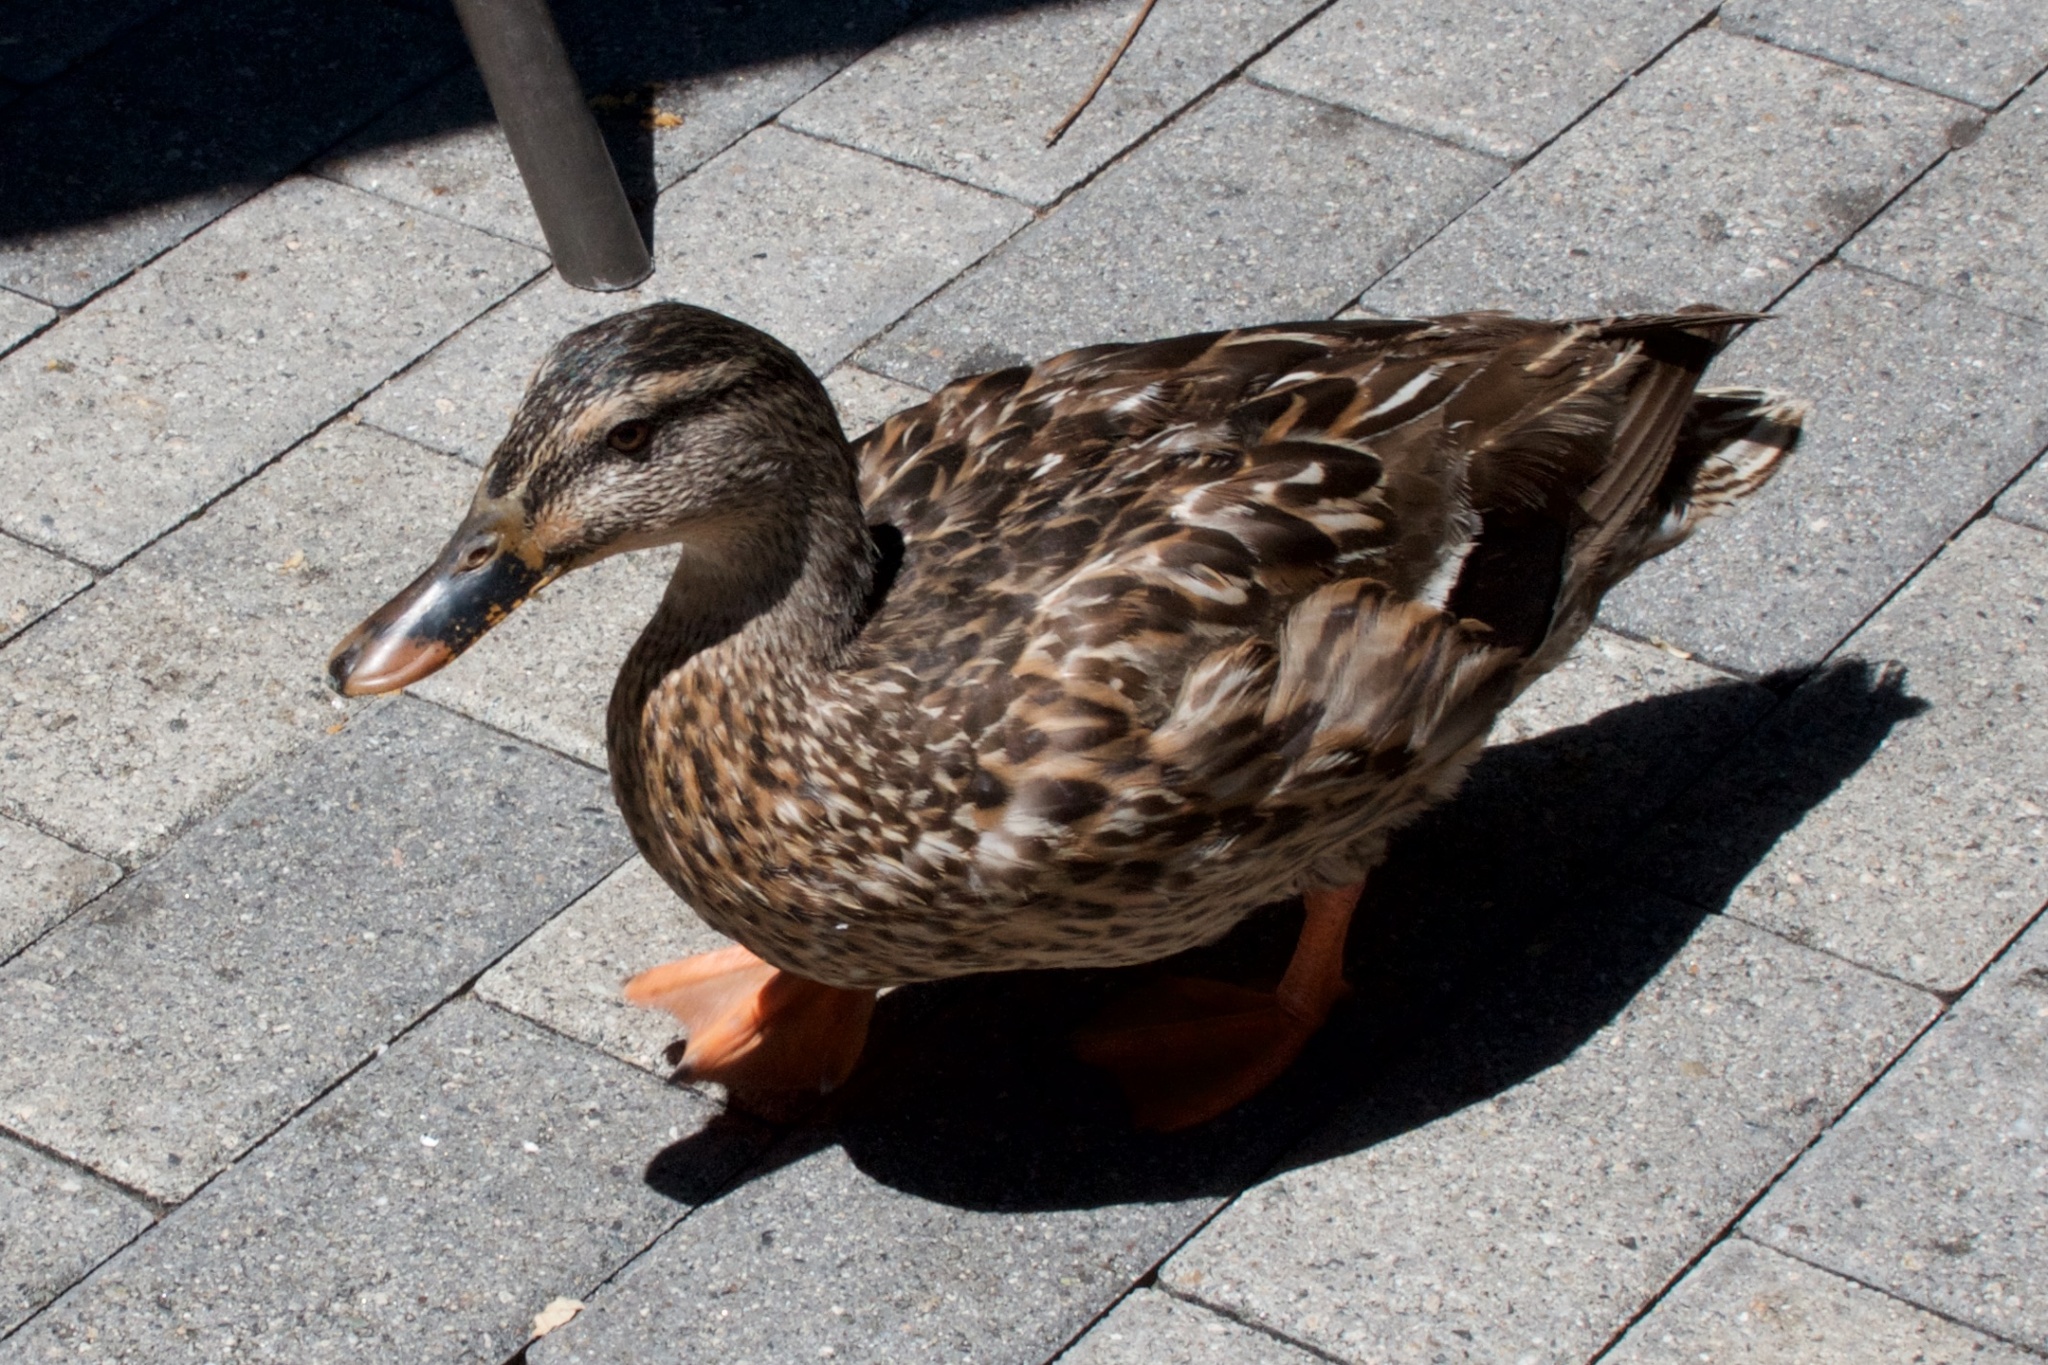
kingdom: Animalia
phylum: Chordata
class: Aves
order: Anseriformes
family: Anatidae
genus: Anas
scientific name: Anas platyrhynchos
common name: Mallard
